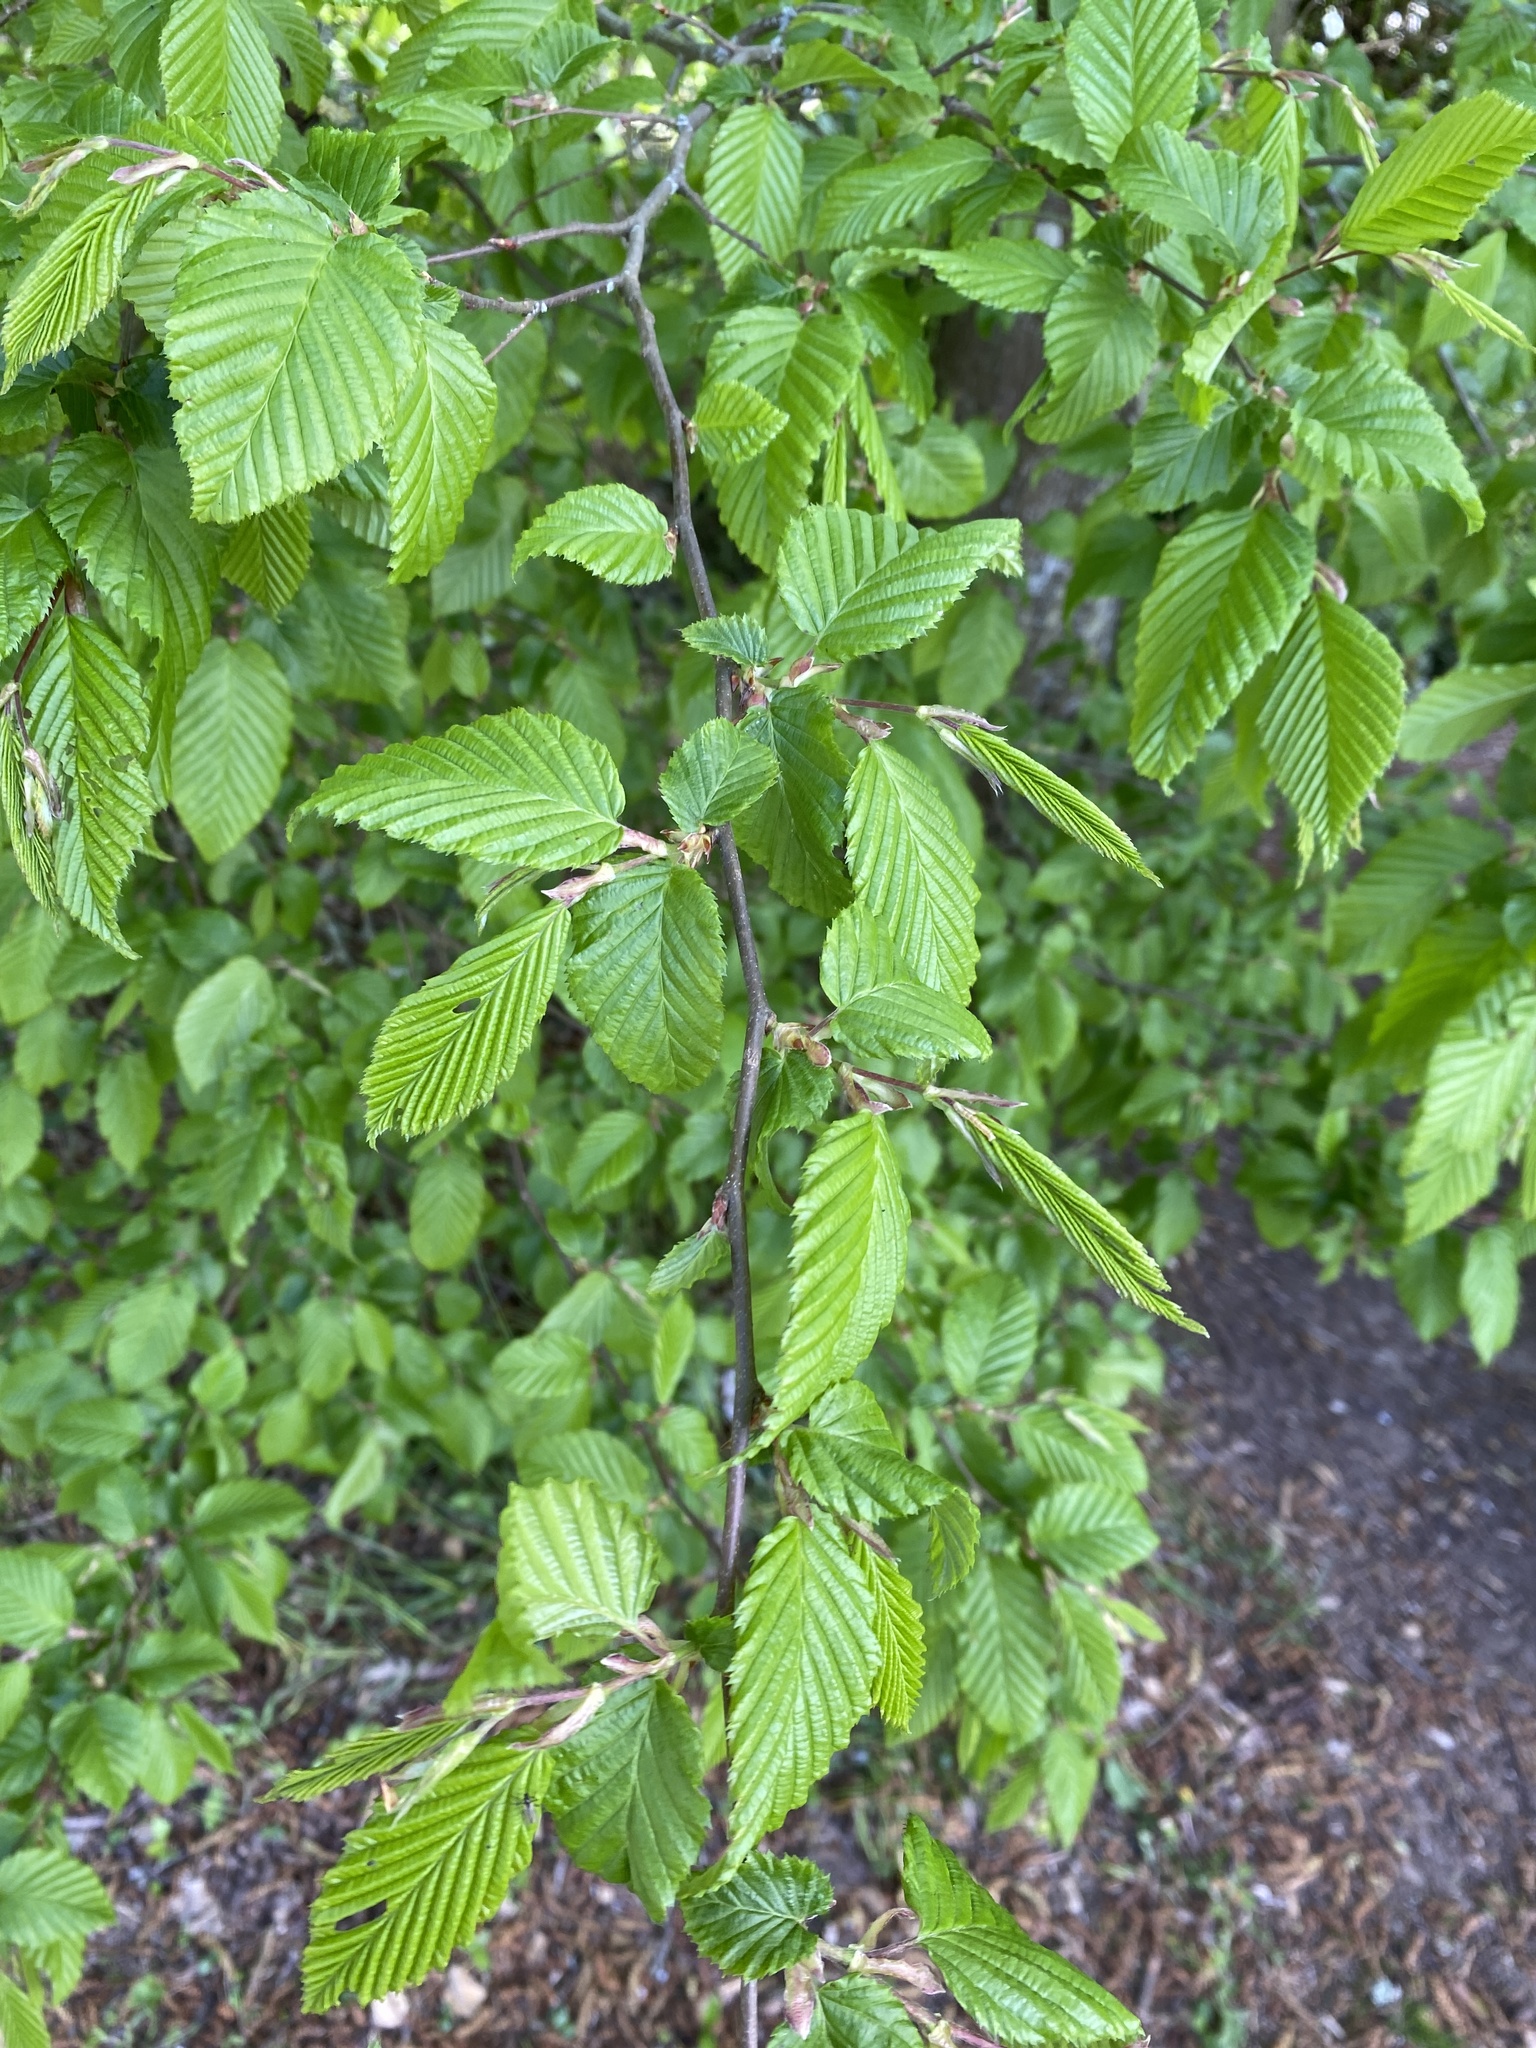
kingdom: Plantae
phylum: Tracheophyta
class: Magnoliopsida
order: Fagales
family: Betulaceae
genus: Carpinus
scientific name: Carpinus betulus
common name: Hornbeam
